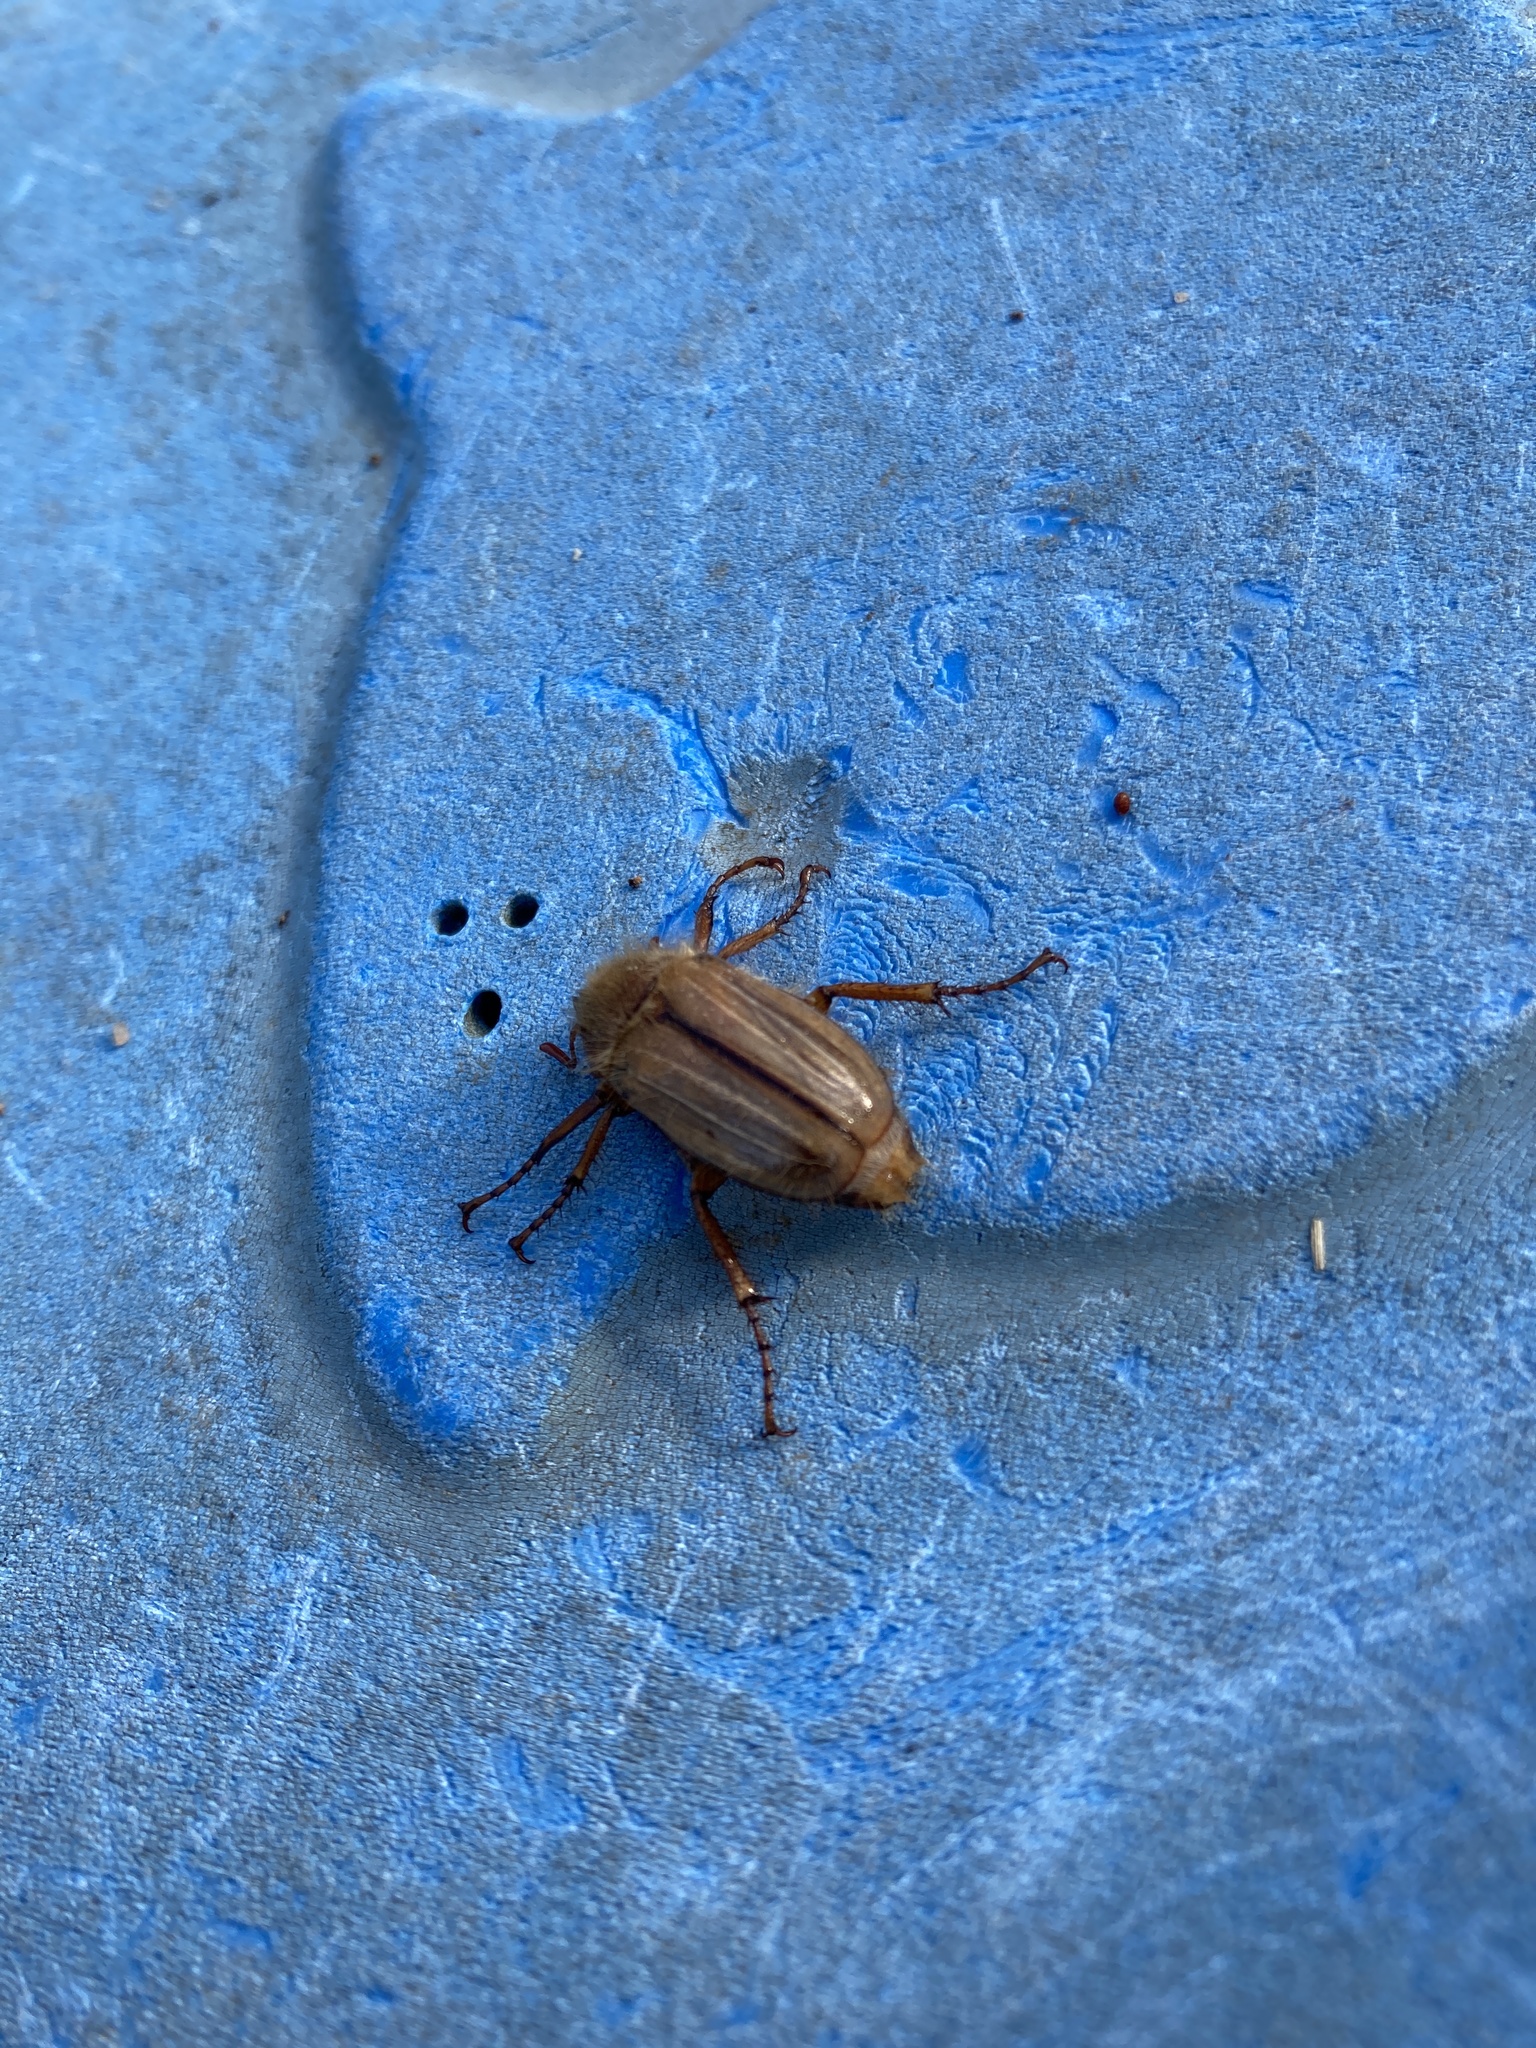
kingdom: Animalia
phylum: Arthropoda
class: Insecta
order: Coleoptera
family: Scarabaeidae
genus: Amphimallon
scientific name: Amphimallon solstitiale
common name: Summer chafer
